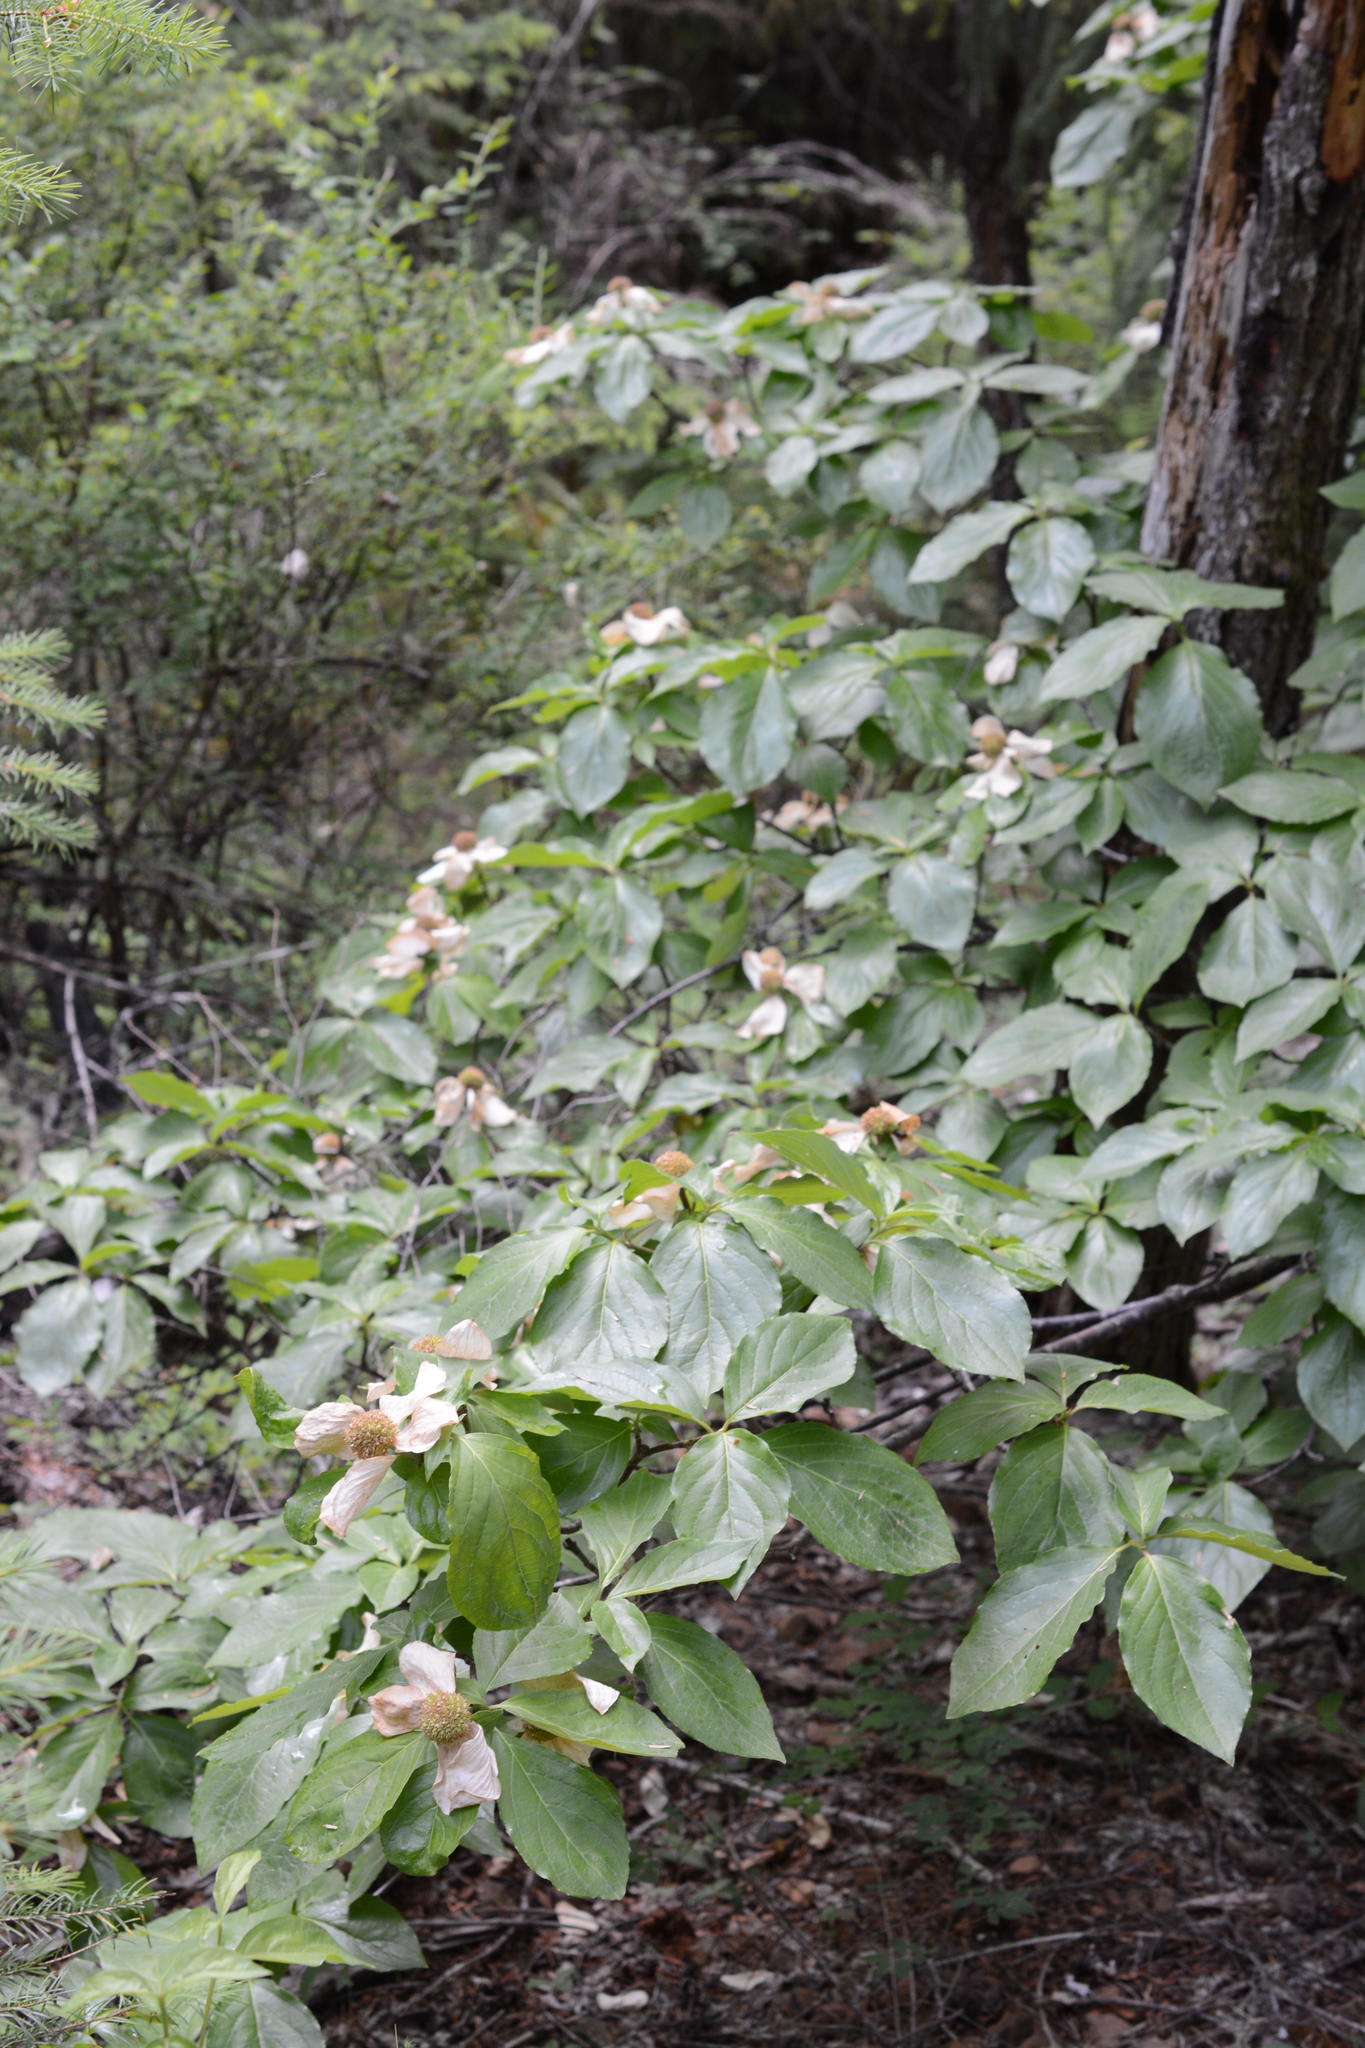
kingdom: Plantae
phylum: Tracheophyta
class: Magnoliopsida
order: Cornales
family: Cornaceae
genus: Cornus
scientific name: Cornus nuttallii
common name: Pacific dogwood
